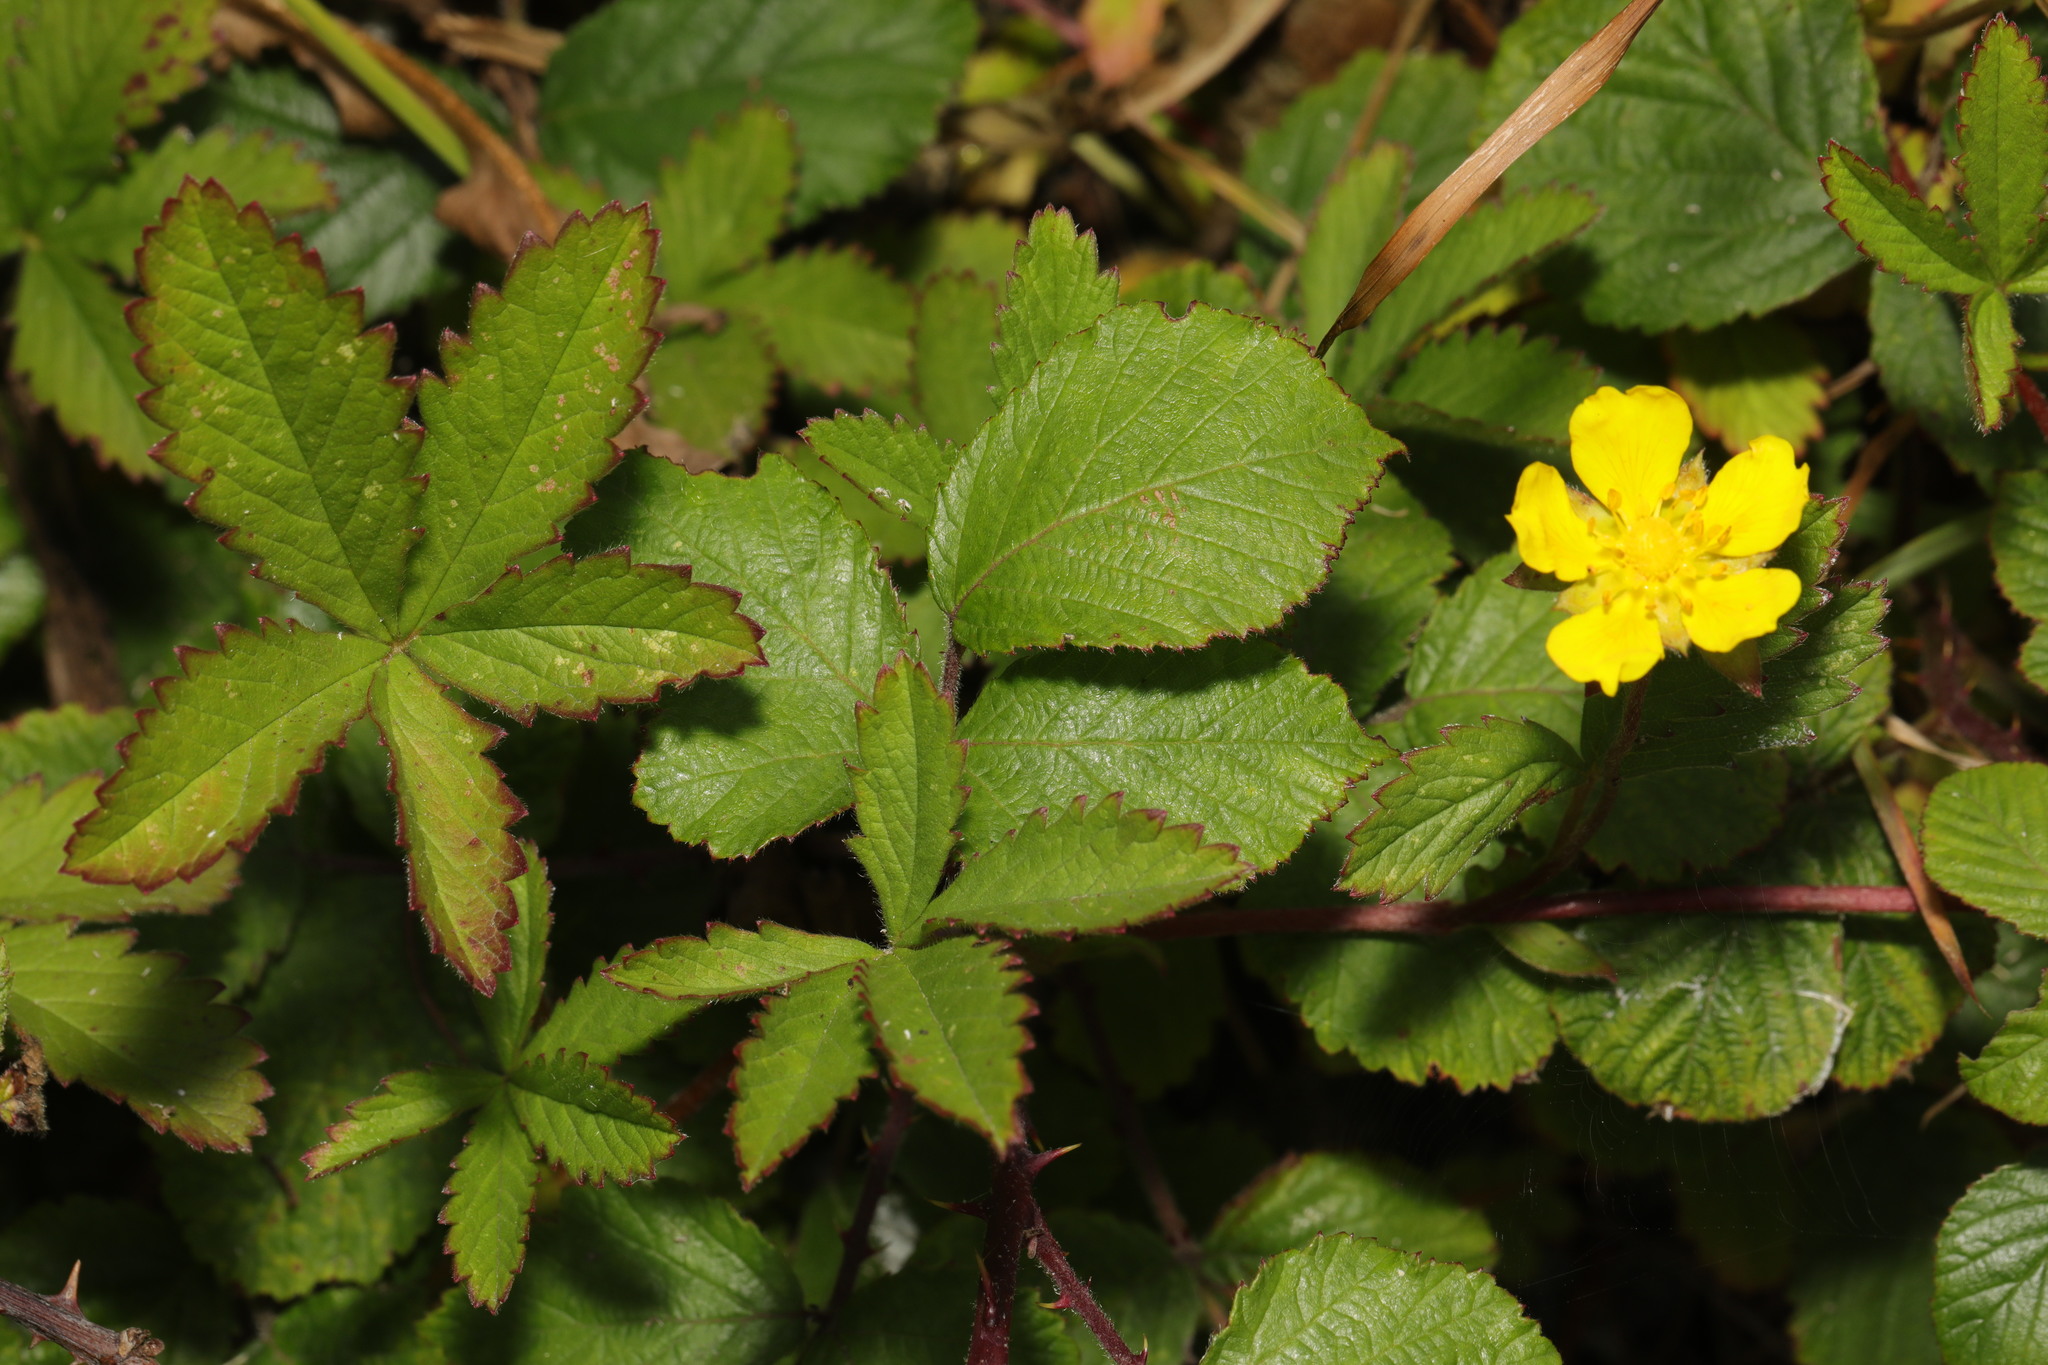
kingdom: Plantae
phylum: Tracheophyta
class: Magnoliopsida
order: Rosales
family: Rosaceae
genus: Potentilla
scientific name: Potentilla reptans
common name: Creeping cinquefoil
